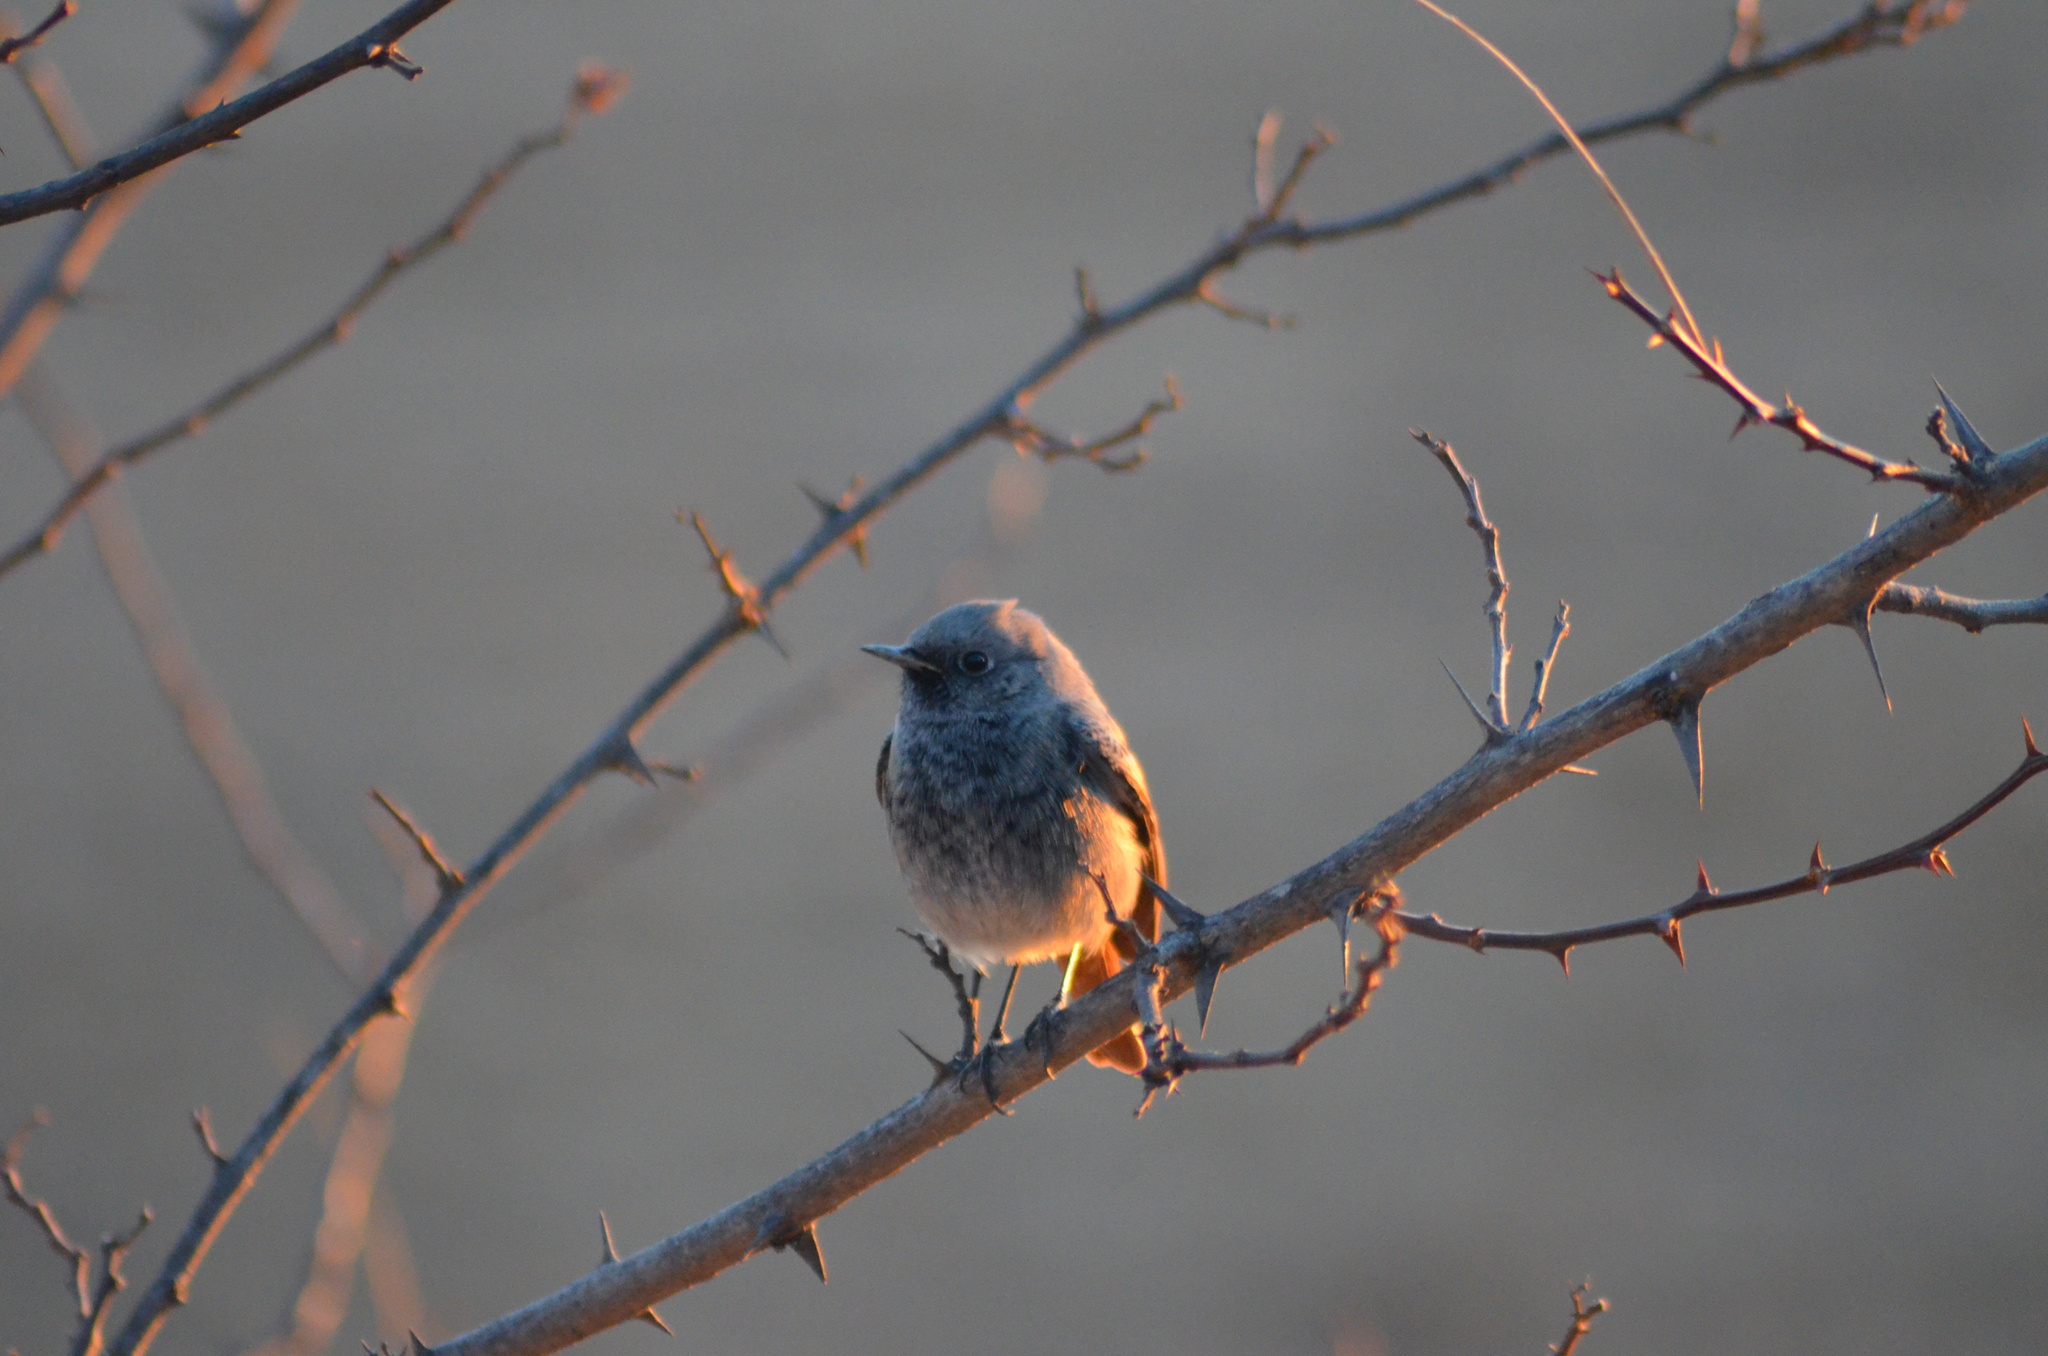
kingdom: Animalia
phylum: Chordata
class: Aves
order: Passeriformes
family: Muscicapidae
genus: Phoenicurus
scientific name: Phoenicurus ochruros
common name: Black redstart
